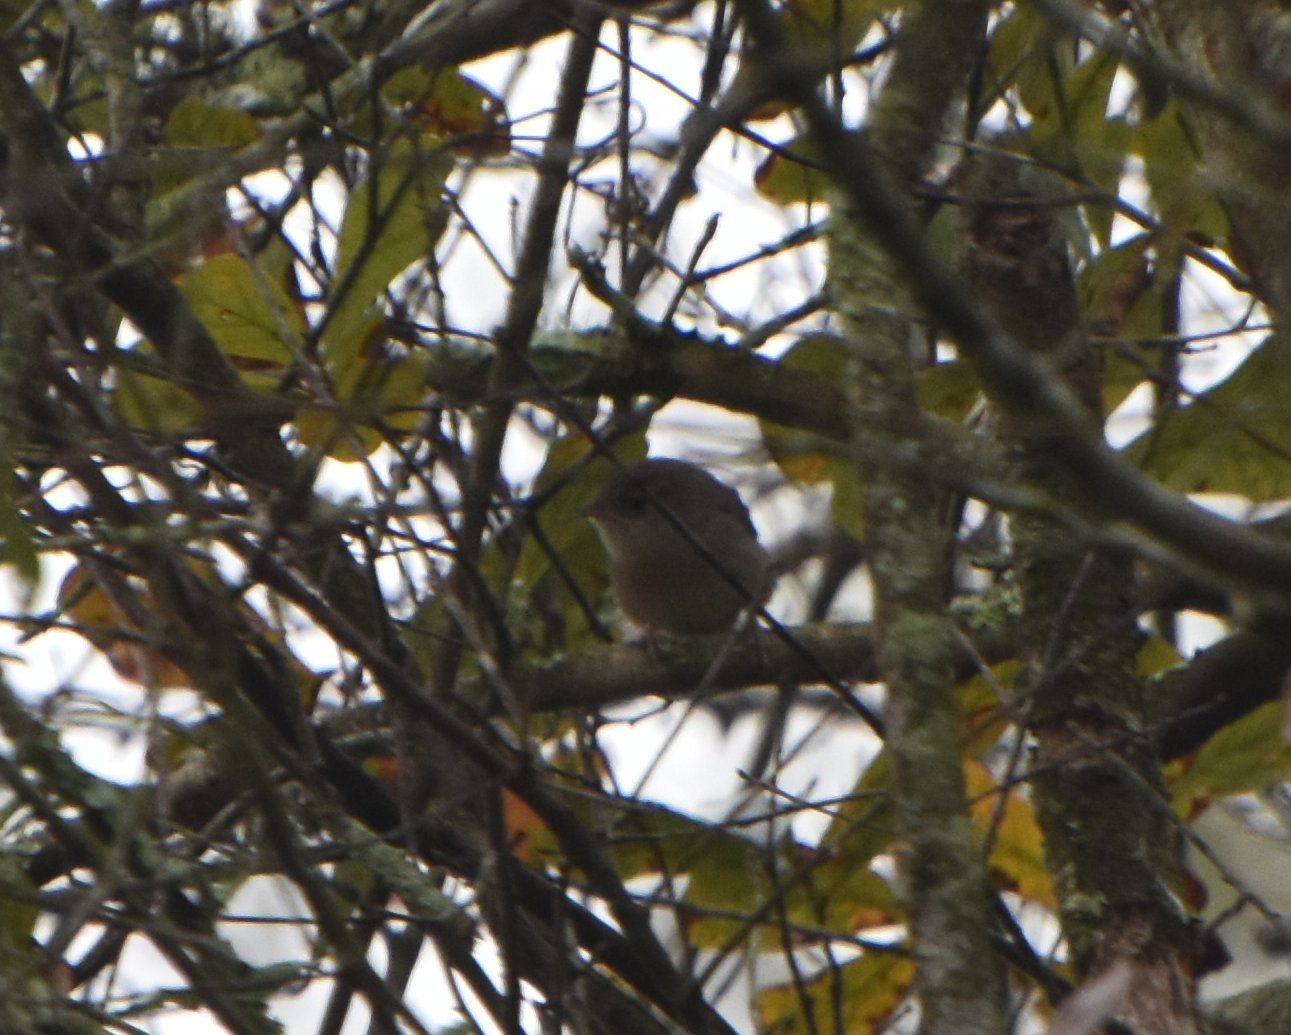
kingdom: Animalia
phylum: Chordata
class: Aves
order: Passeriformes
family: Troglodytidae
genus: Troglodytes
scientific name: Troglodytes aedon
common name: House wren
